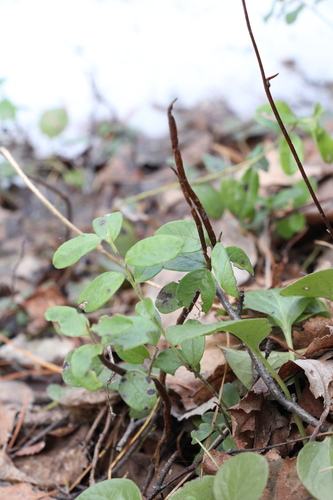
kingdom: Fungi
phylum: Basidiomycota
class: Pucciniomycetes
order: Pucciniales
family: Pucciniastraceae
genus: Calyptospora
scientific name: Calyptospora columnaris
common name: Huckleberry broom rust fungus
